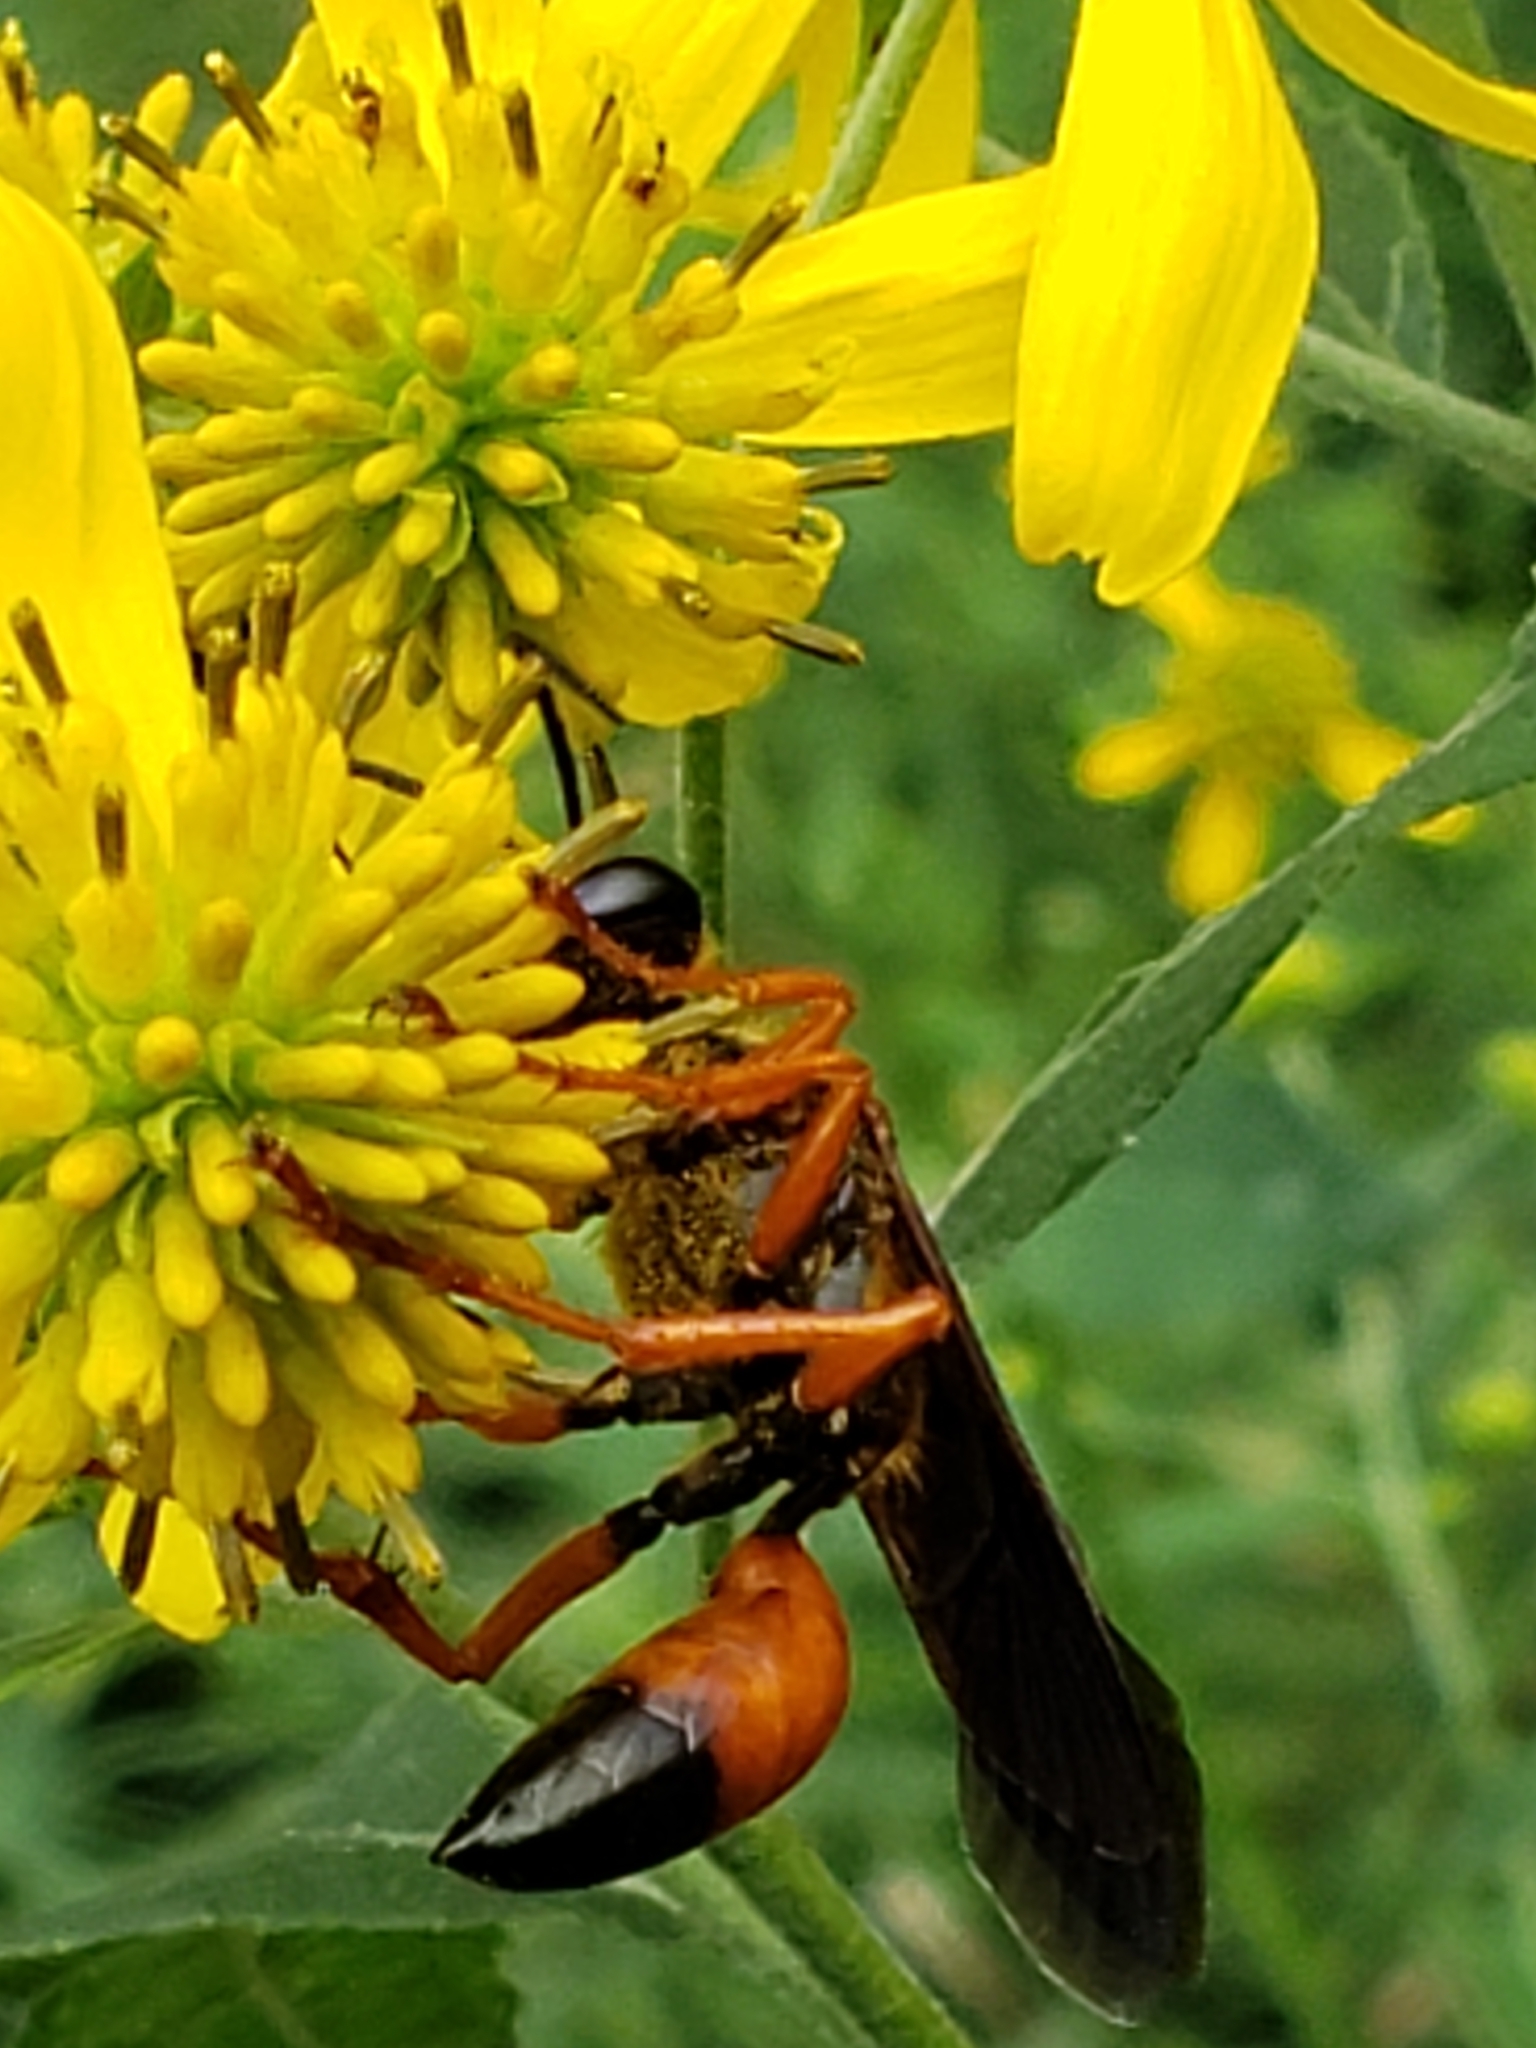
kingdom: Animalia
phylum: Arthropoda
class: Insecta
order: Hymenoptera
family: Sphecidae
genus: Sphex
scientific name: Sphex ichneumoneus
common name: Great golden digger wasp
